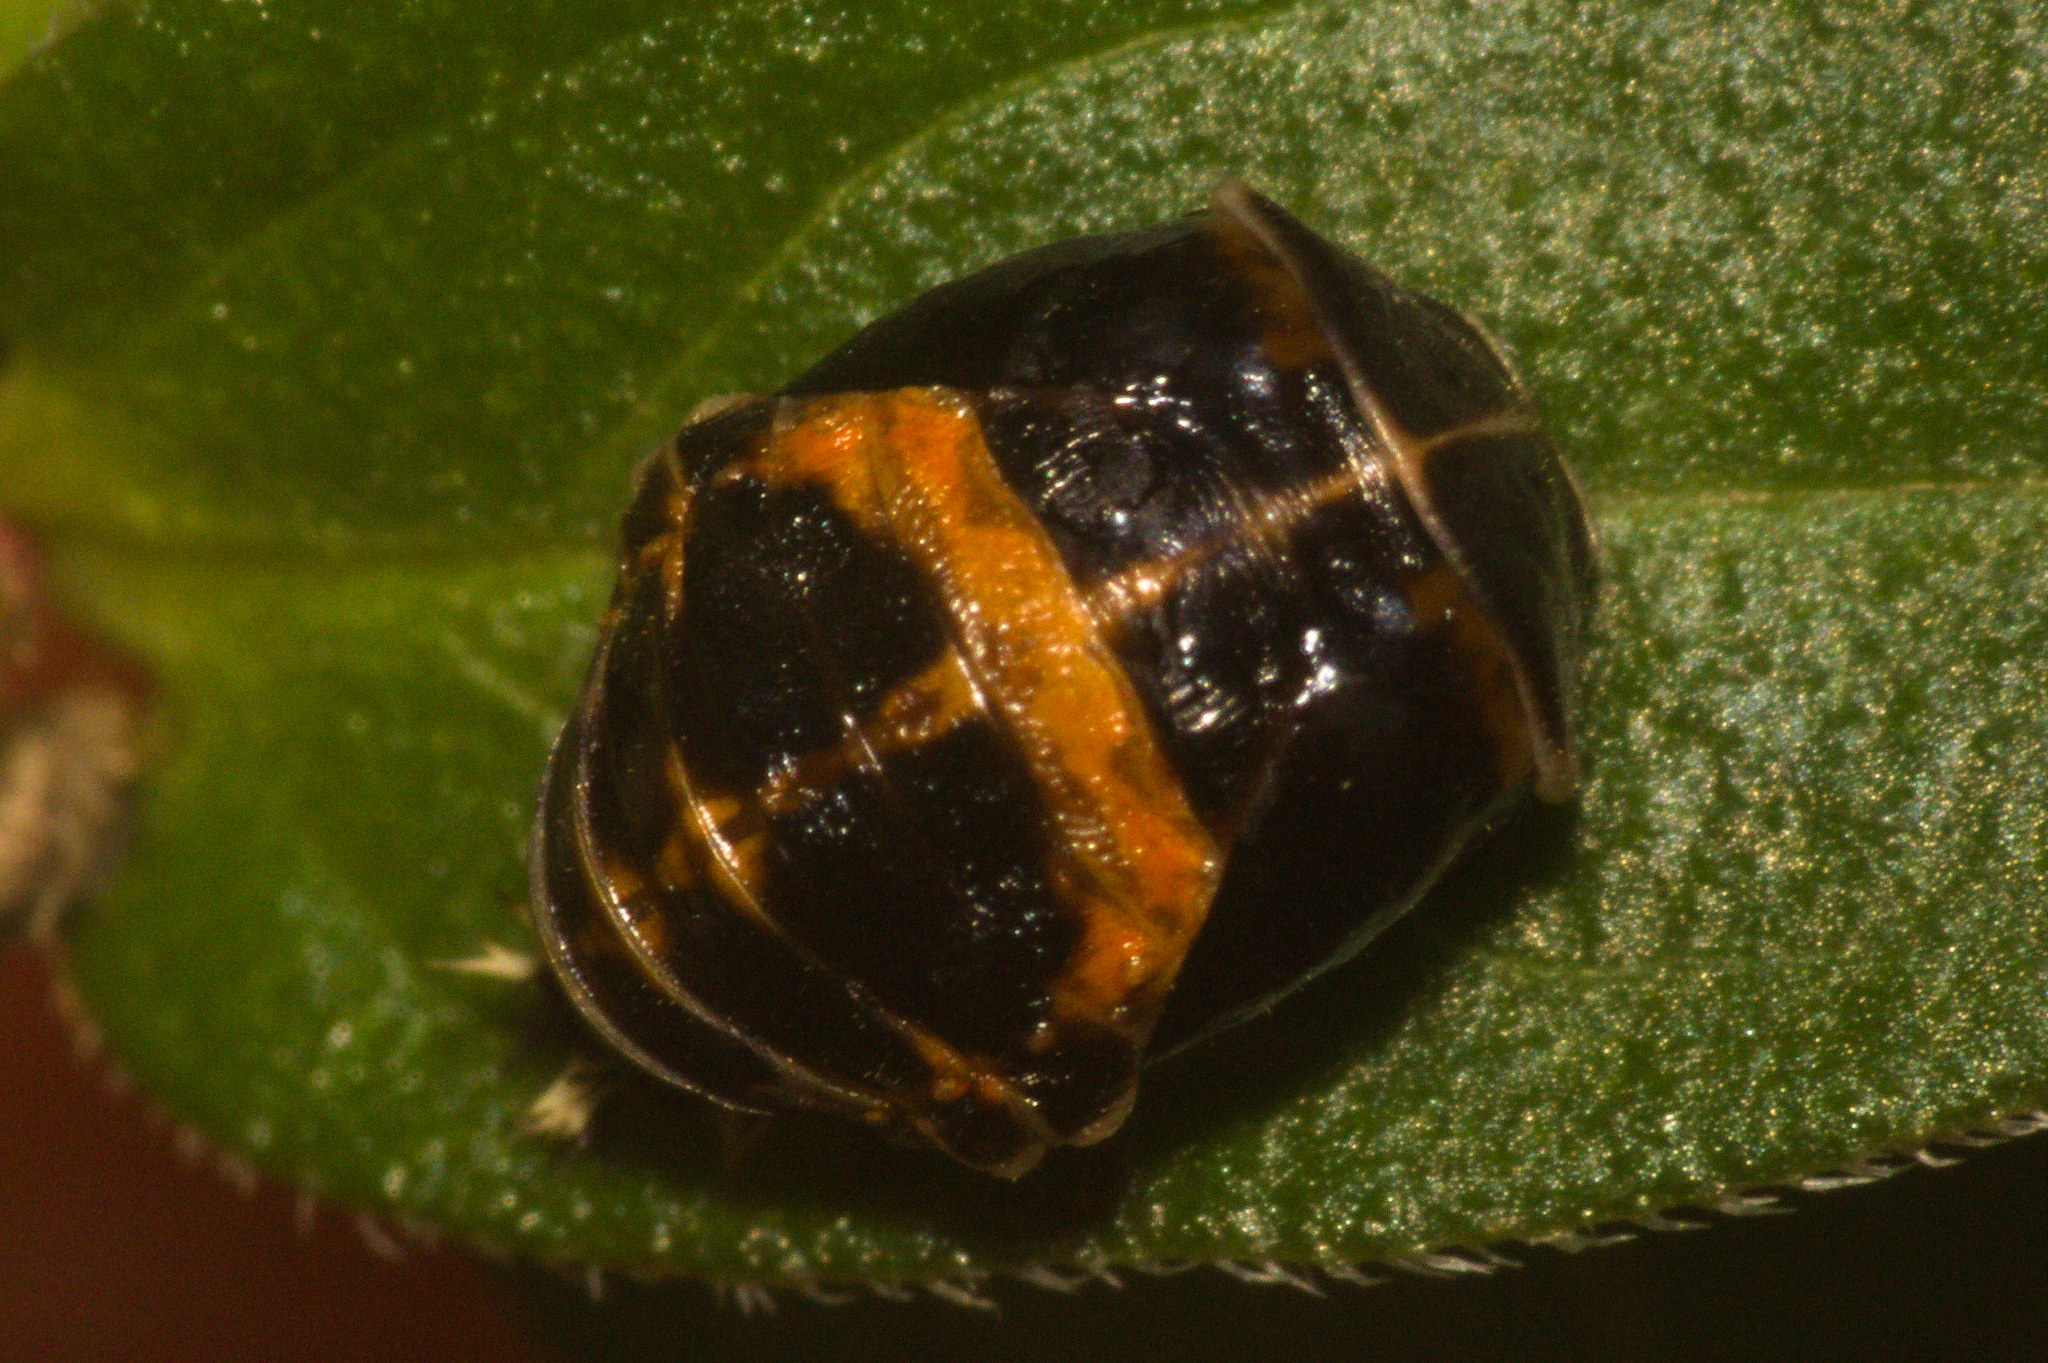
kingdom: Animalia
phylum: Arthropoda
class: Insecta
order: Coleoptera
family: Coccinellidae
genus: Harmonia
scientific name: Harmonia axyridis
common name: Harlequin ladybird
